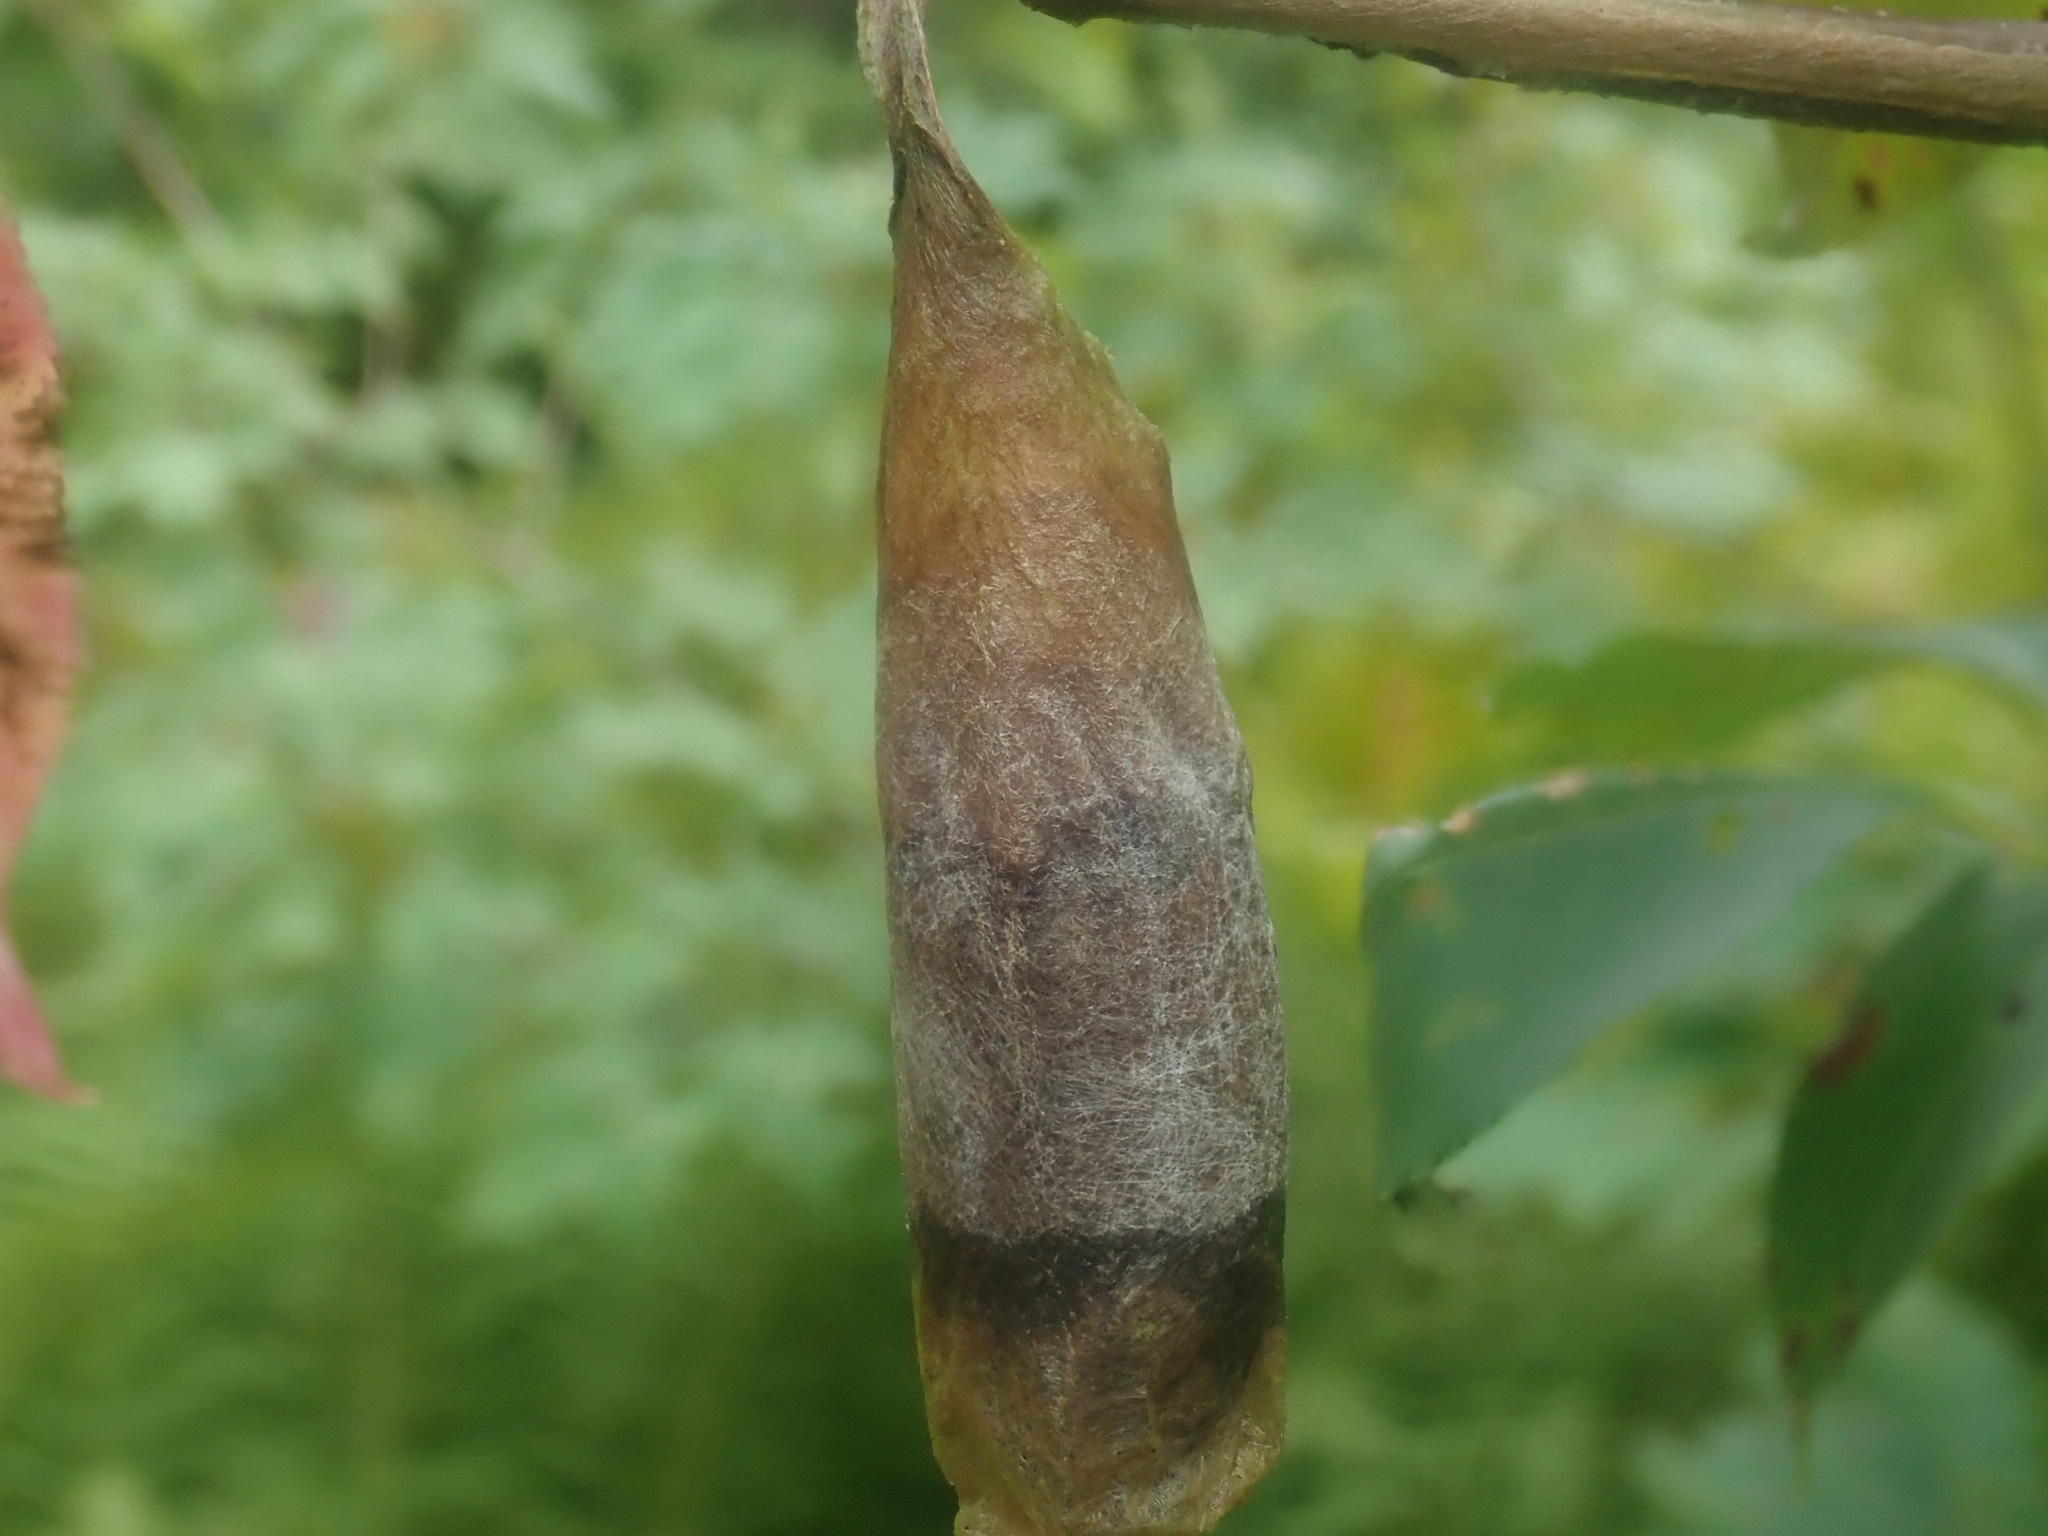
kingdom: Animalia
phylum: Arthropoda
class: Insecta
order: Lepidoptera
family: Saturniidae
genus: Callosamia
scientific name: Callosamia promethea
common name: Promethea silkmoth
